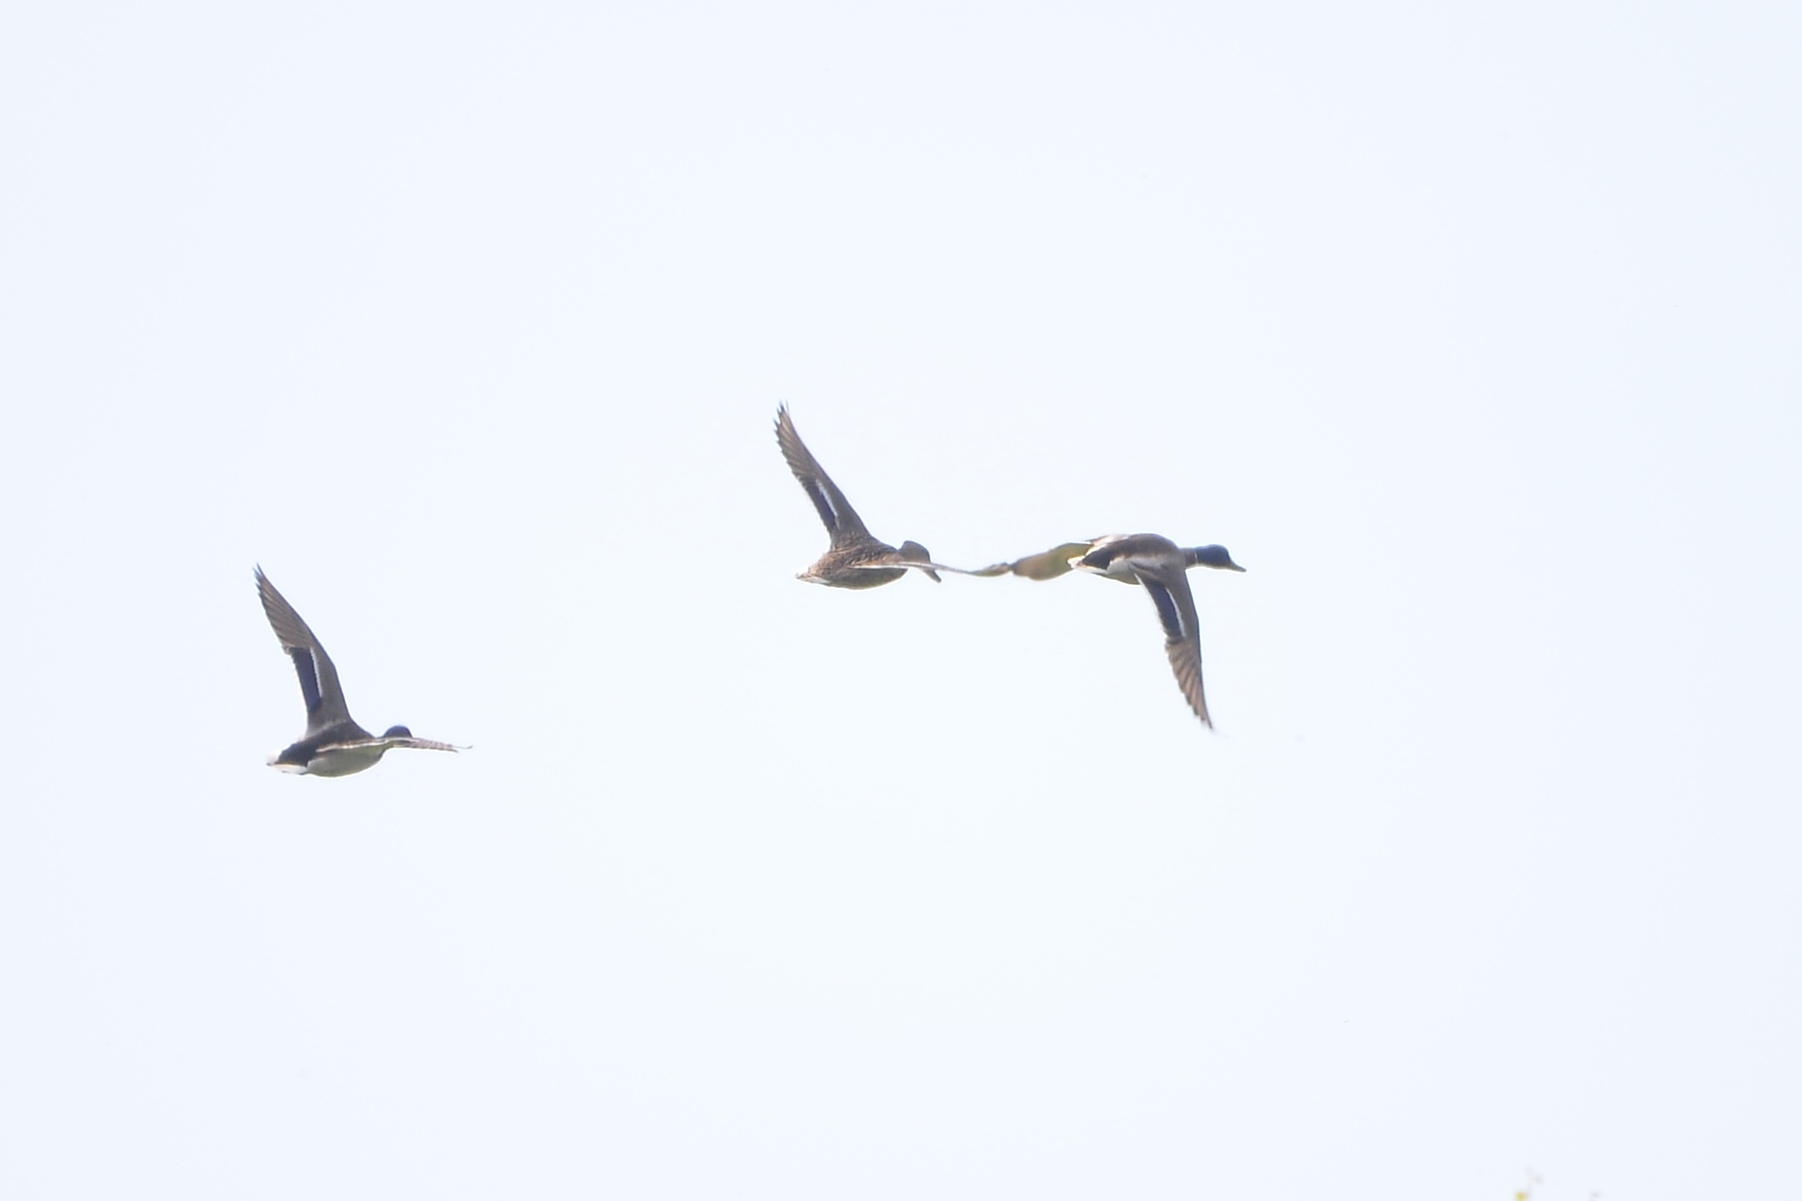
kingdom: Animalia
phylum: Chordata
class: Aves
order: Anseriformes
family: Anatidae
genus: Anas
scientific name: Anas platyrhynchos
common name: Mallard
